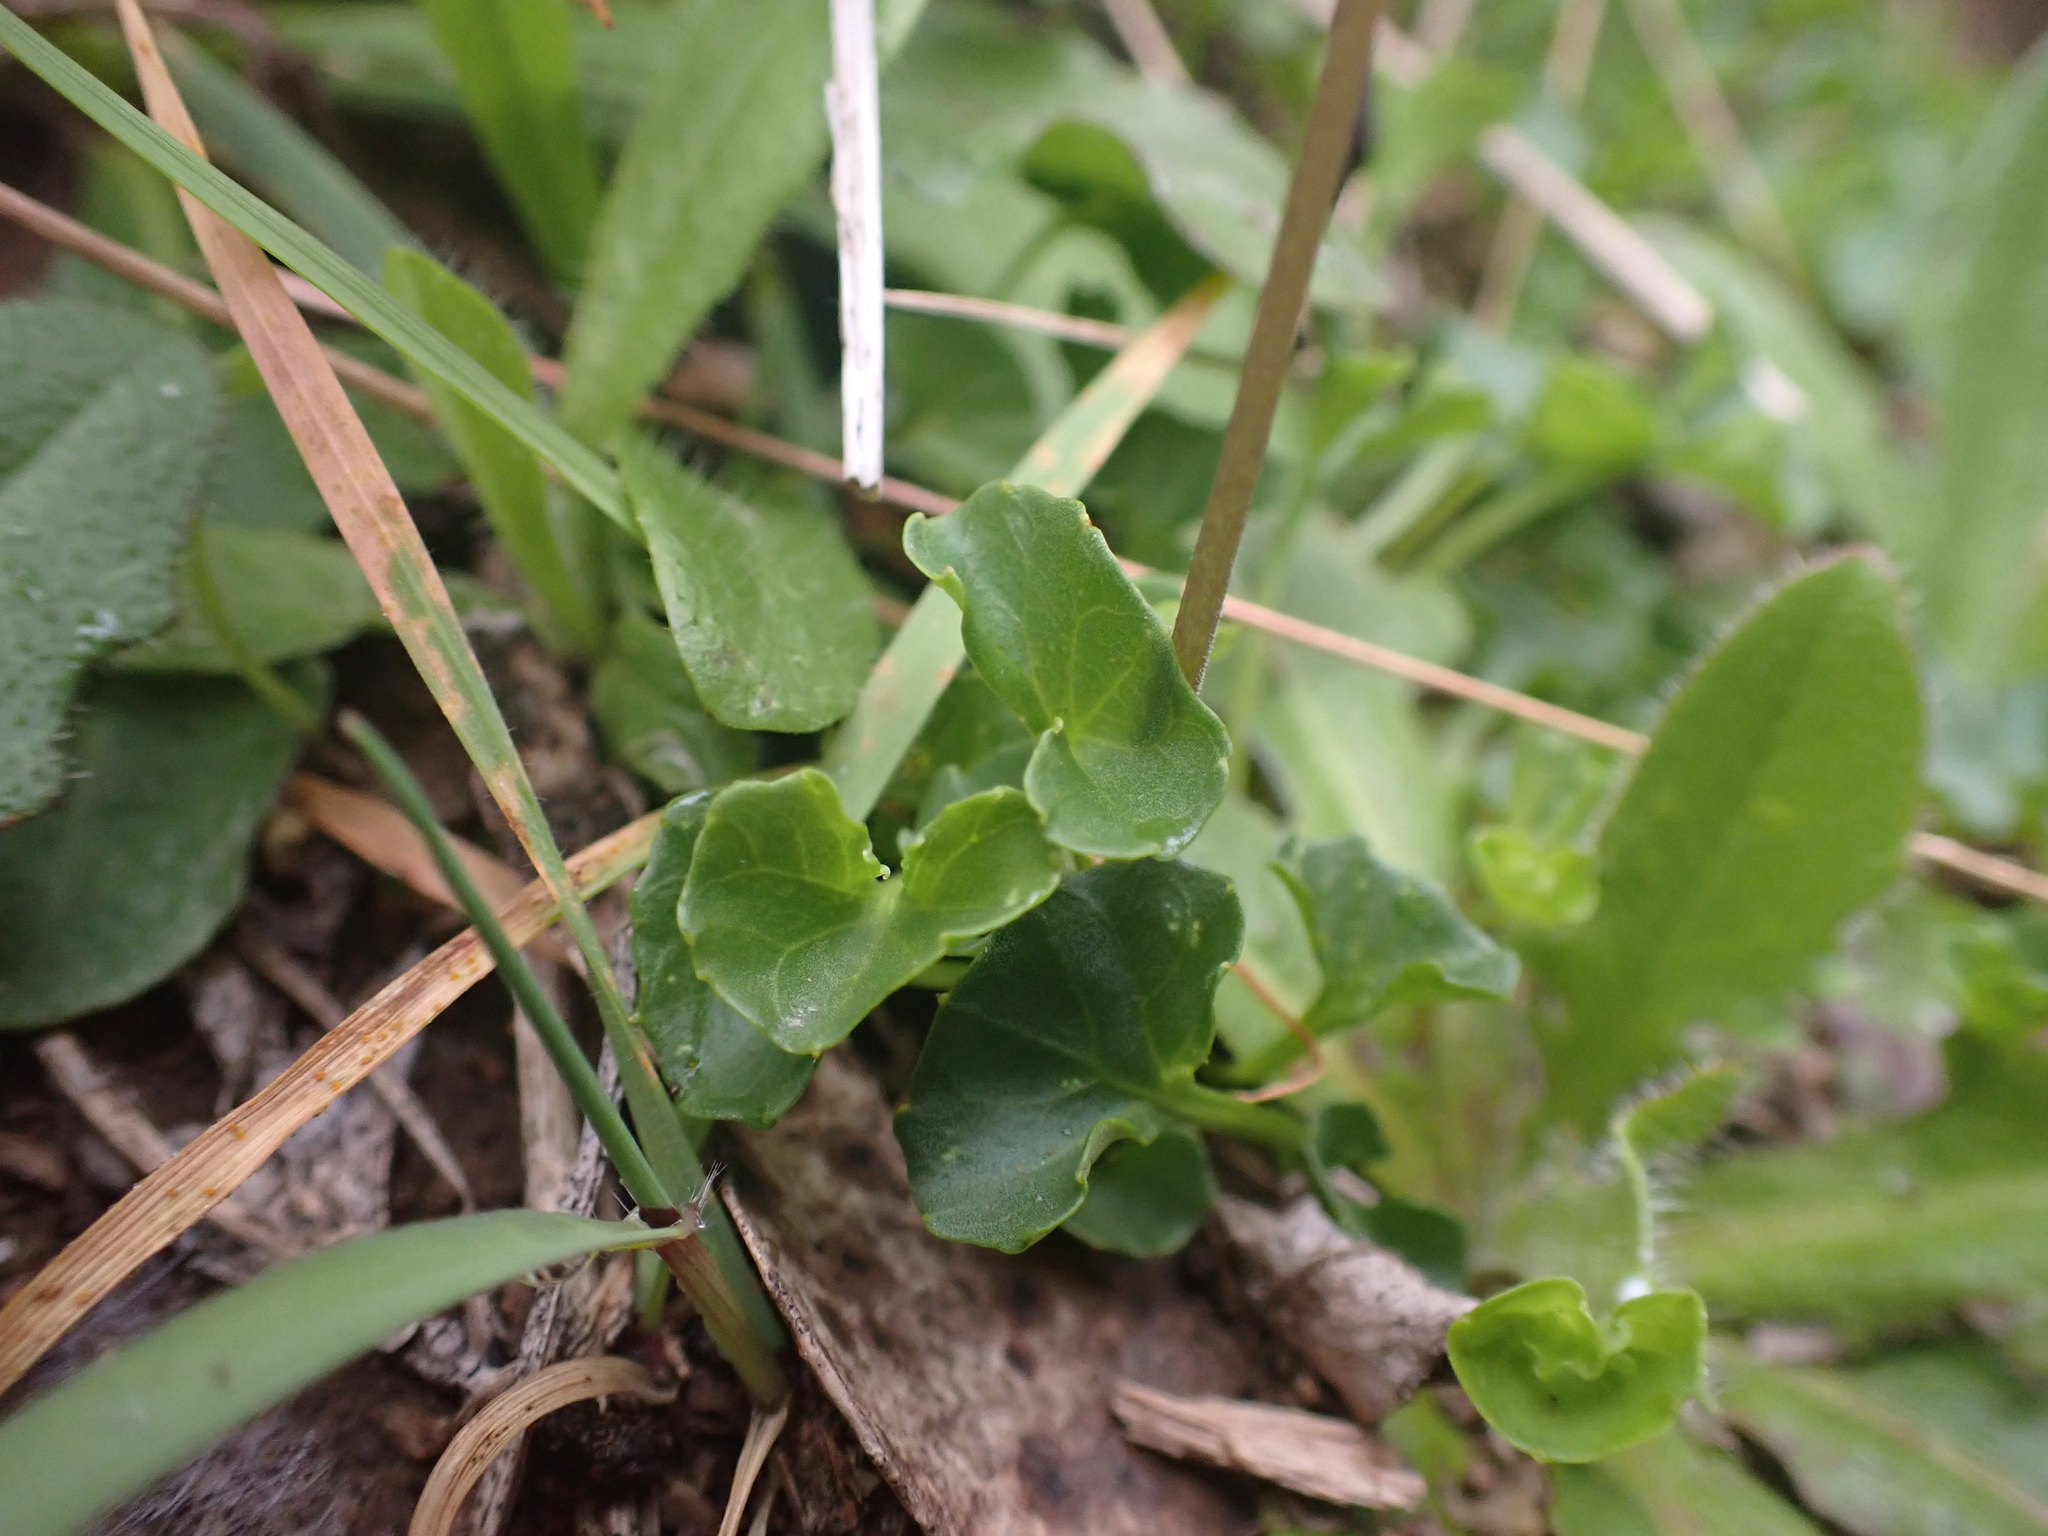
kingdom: Plantae
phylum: Tracheophyta
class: Magnoliopsida
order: Malpighiales
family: Violaceae
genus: Viola
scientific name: Viola eminens
